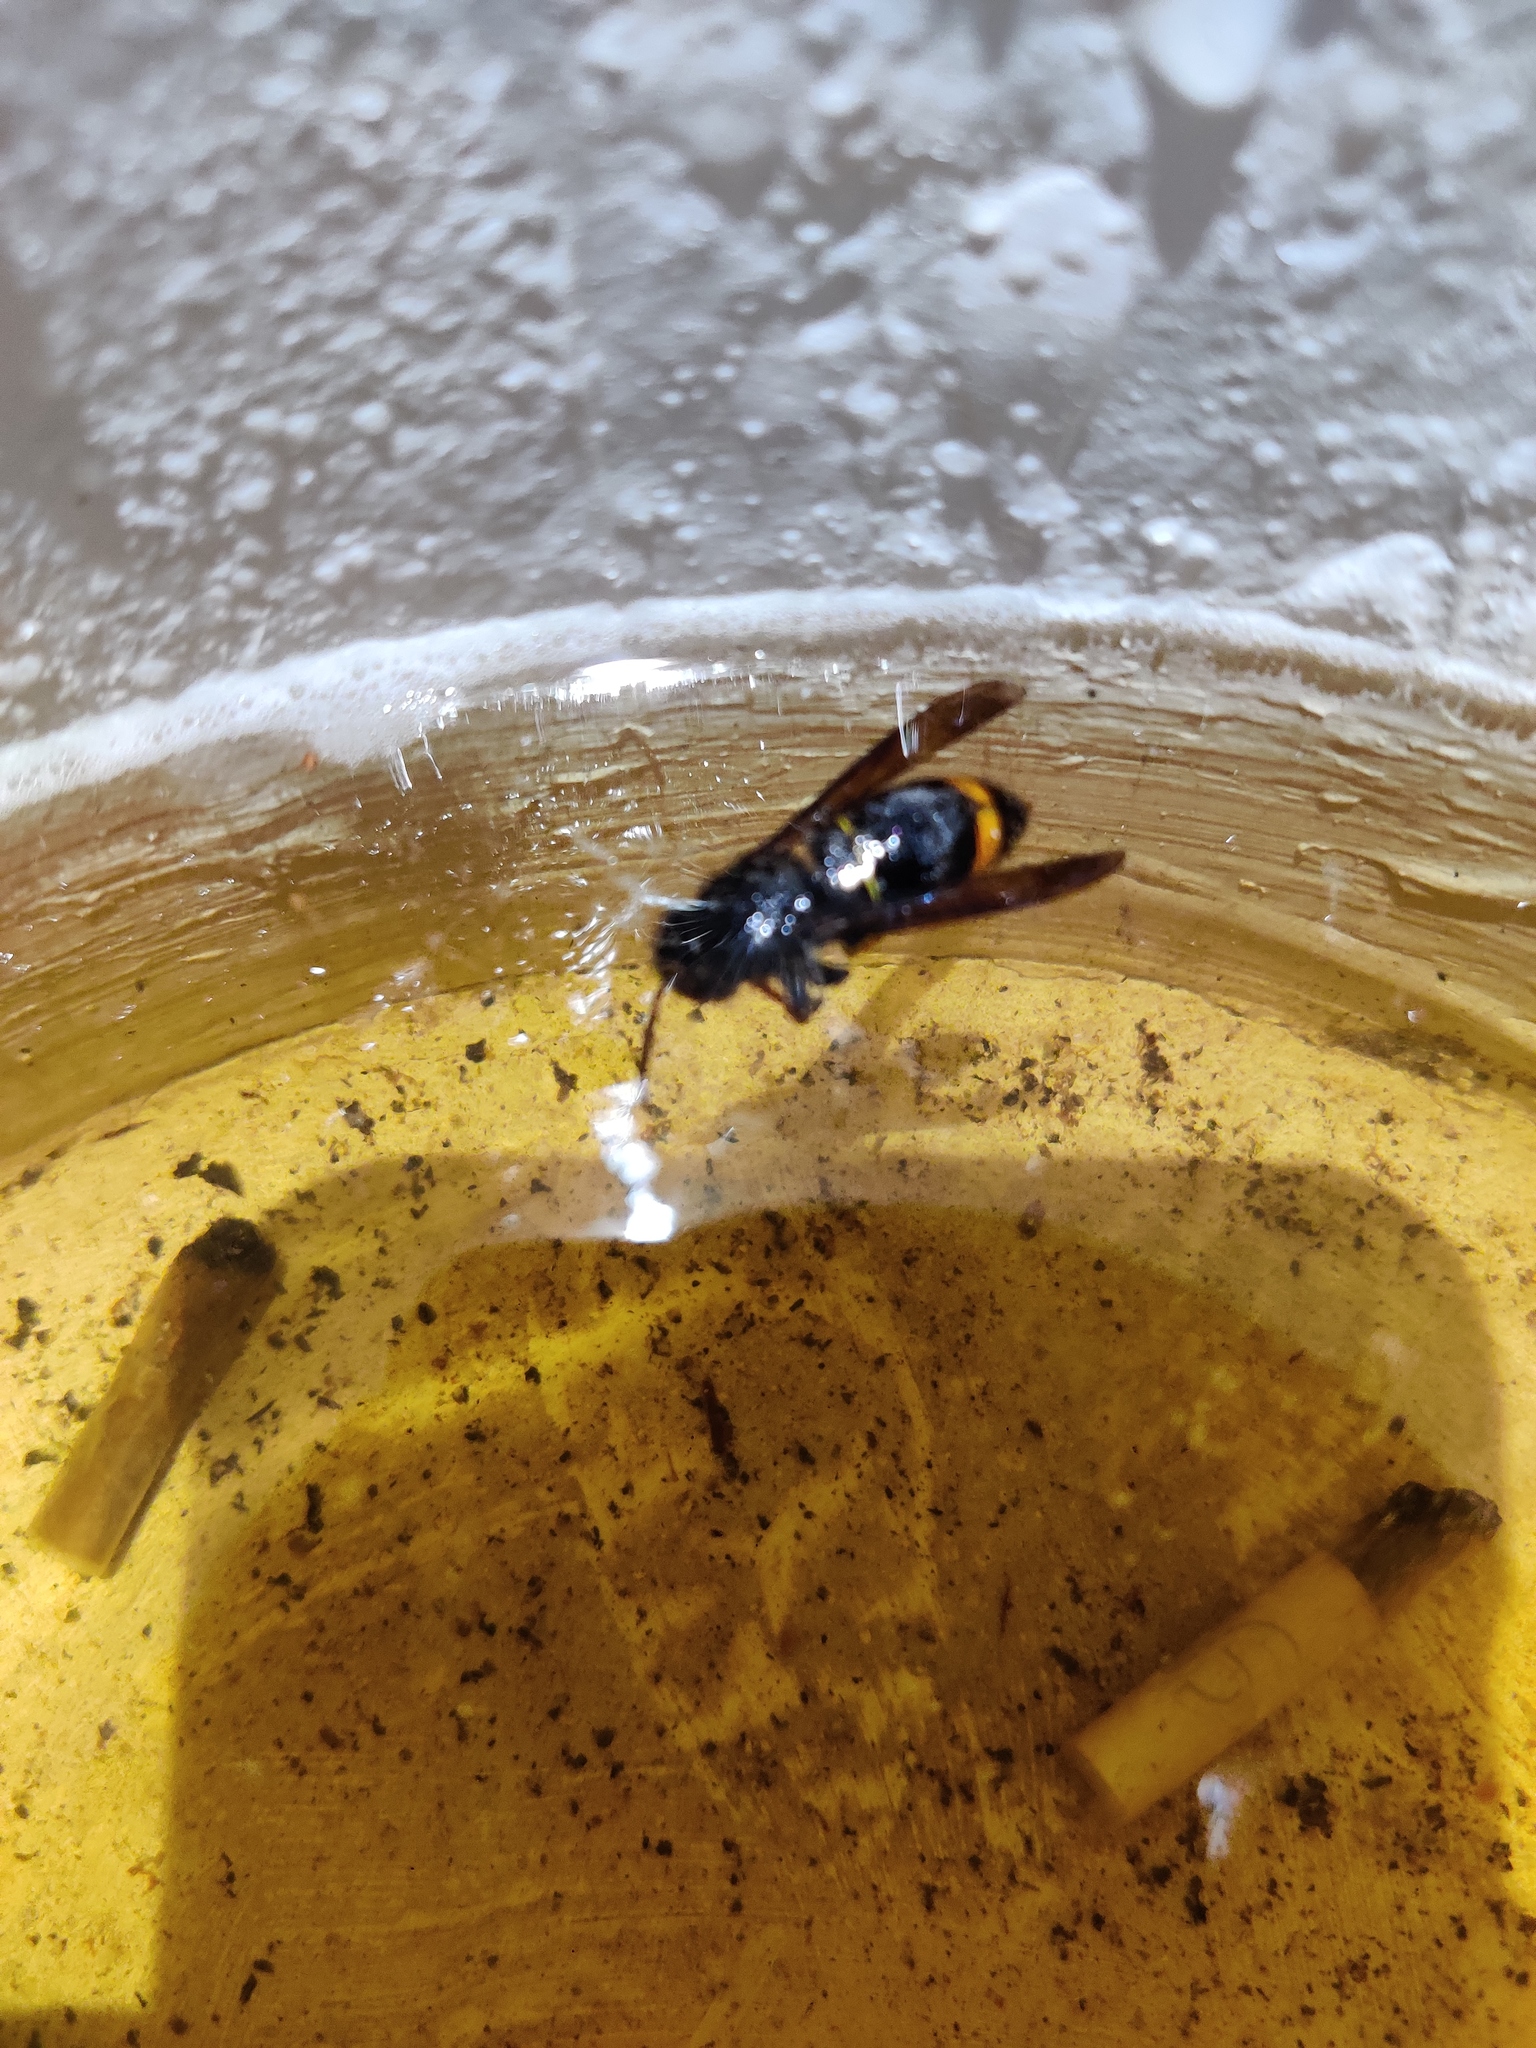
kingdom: Animalia
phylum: Arthropoda
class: Insecta
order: Hymenoptera
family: Vespidae
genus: Vespa
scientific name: Vespa velutina
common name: Asian hornet
